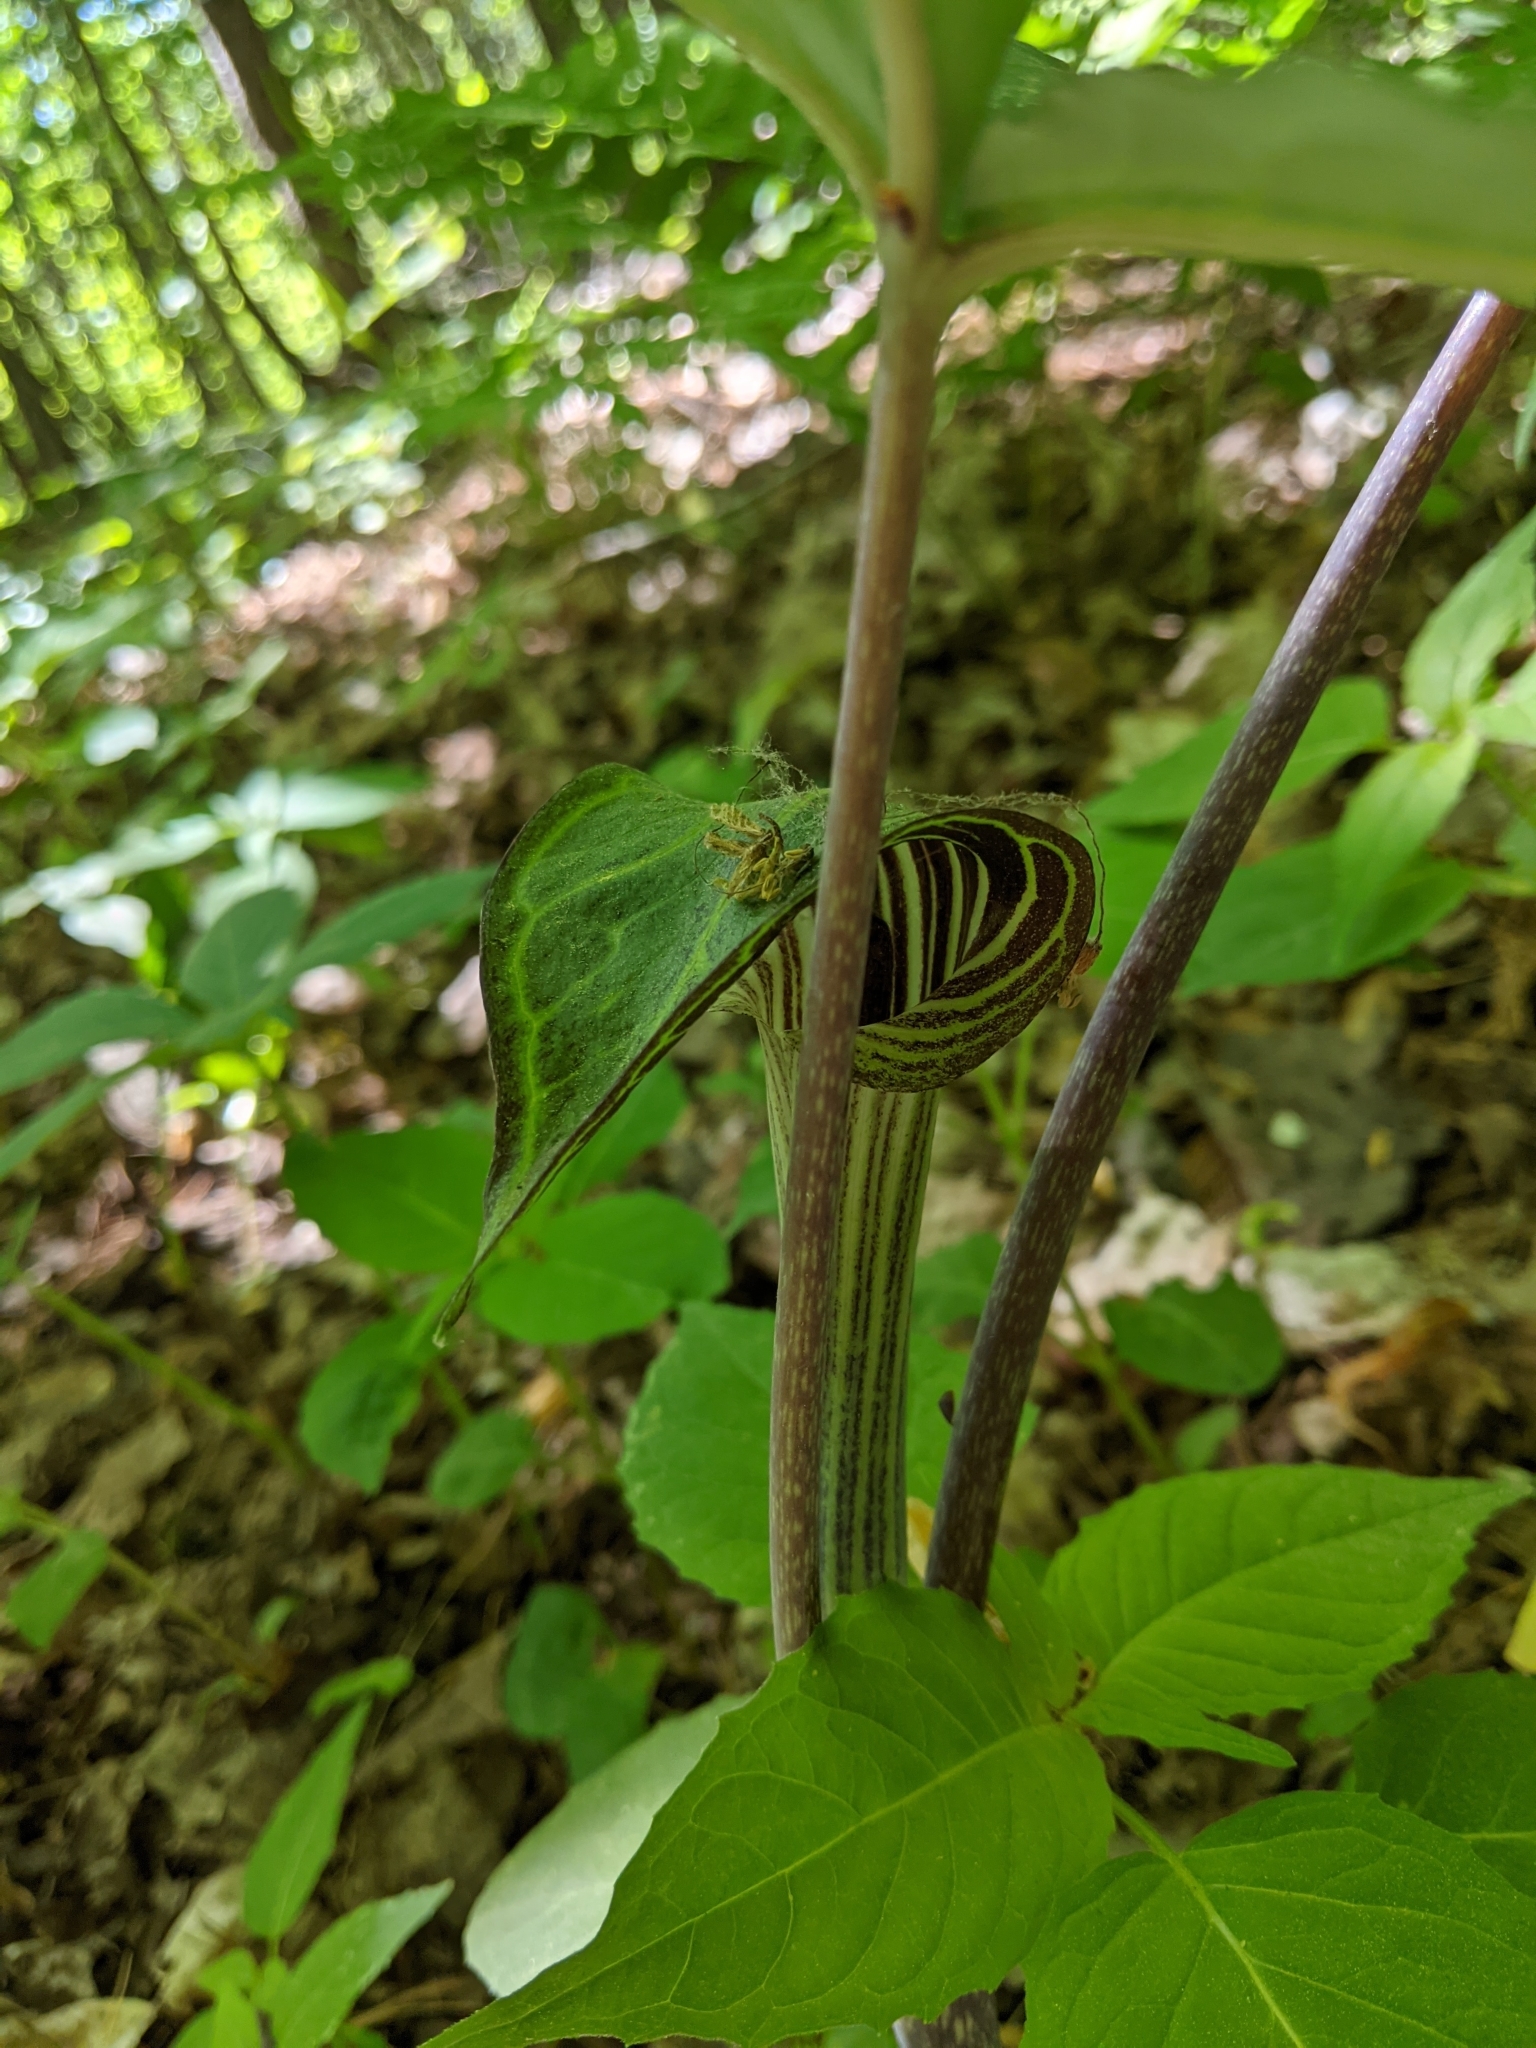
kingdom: Plantae
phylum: Tracheophyta
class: Liliopsida
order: Alismatales
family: Araceae
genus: Arisaema
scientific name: Arisaema triphyllum
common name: Jack-in-the-pulpit
